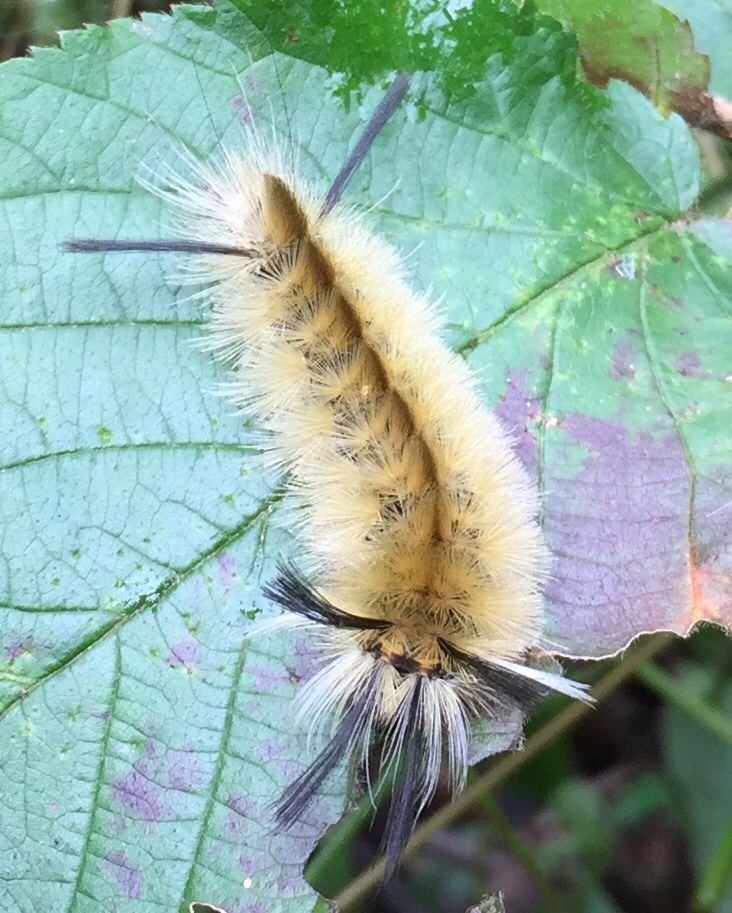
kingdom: Animalia
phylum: Arthropoda
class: Insecta
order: Lepidoptera
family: Erebidae
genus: Halysidota
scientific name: Halysidota tessellaris
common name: Banded tussock moth
